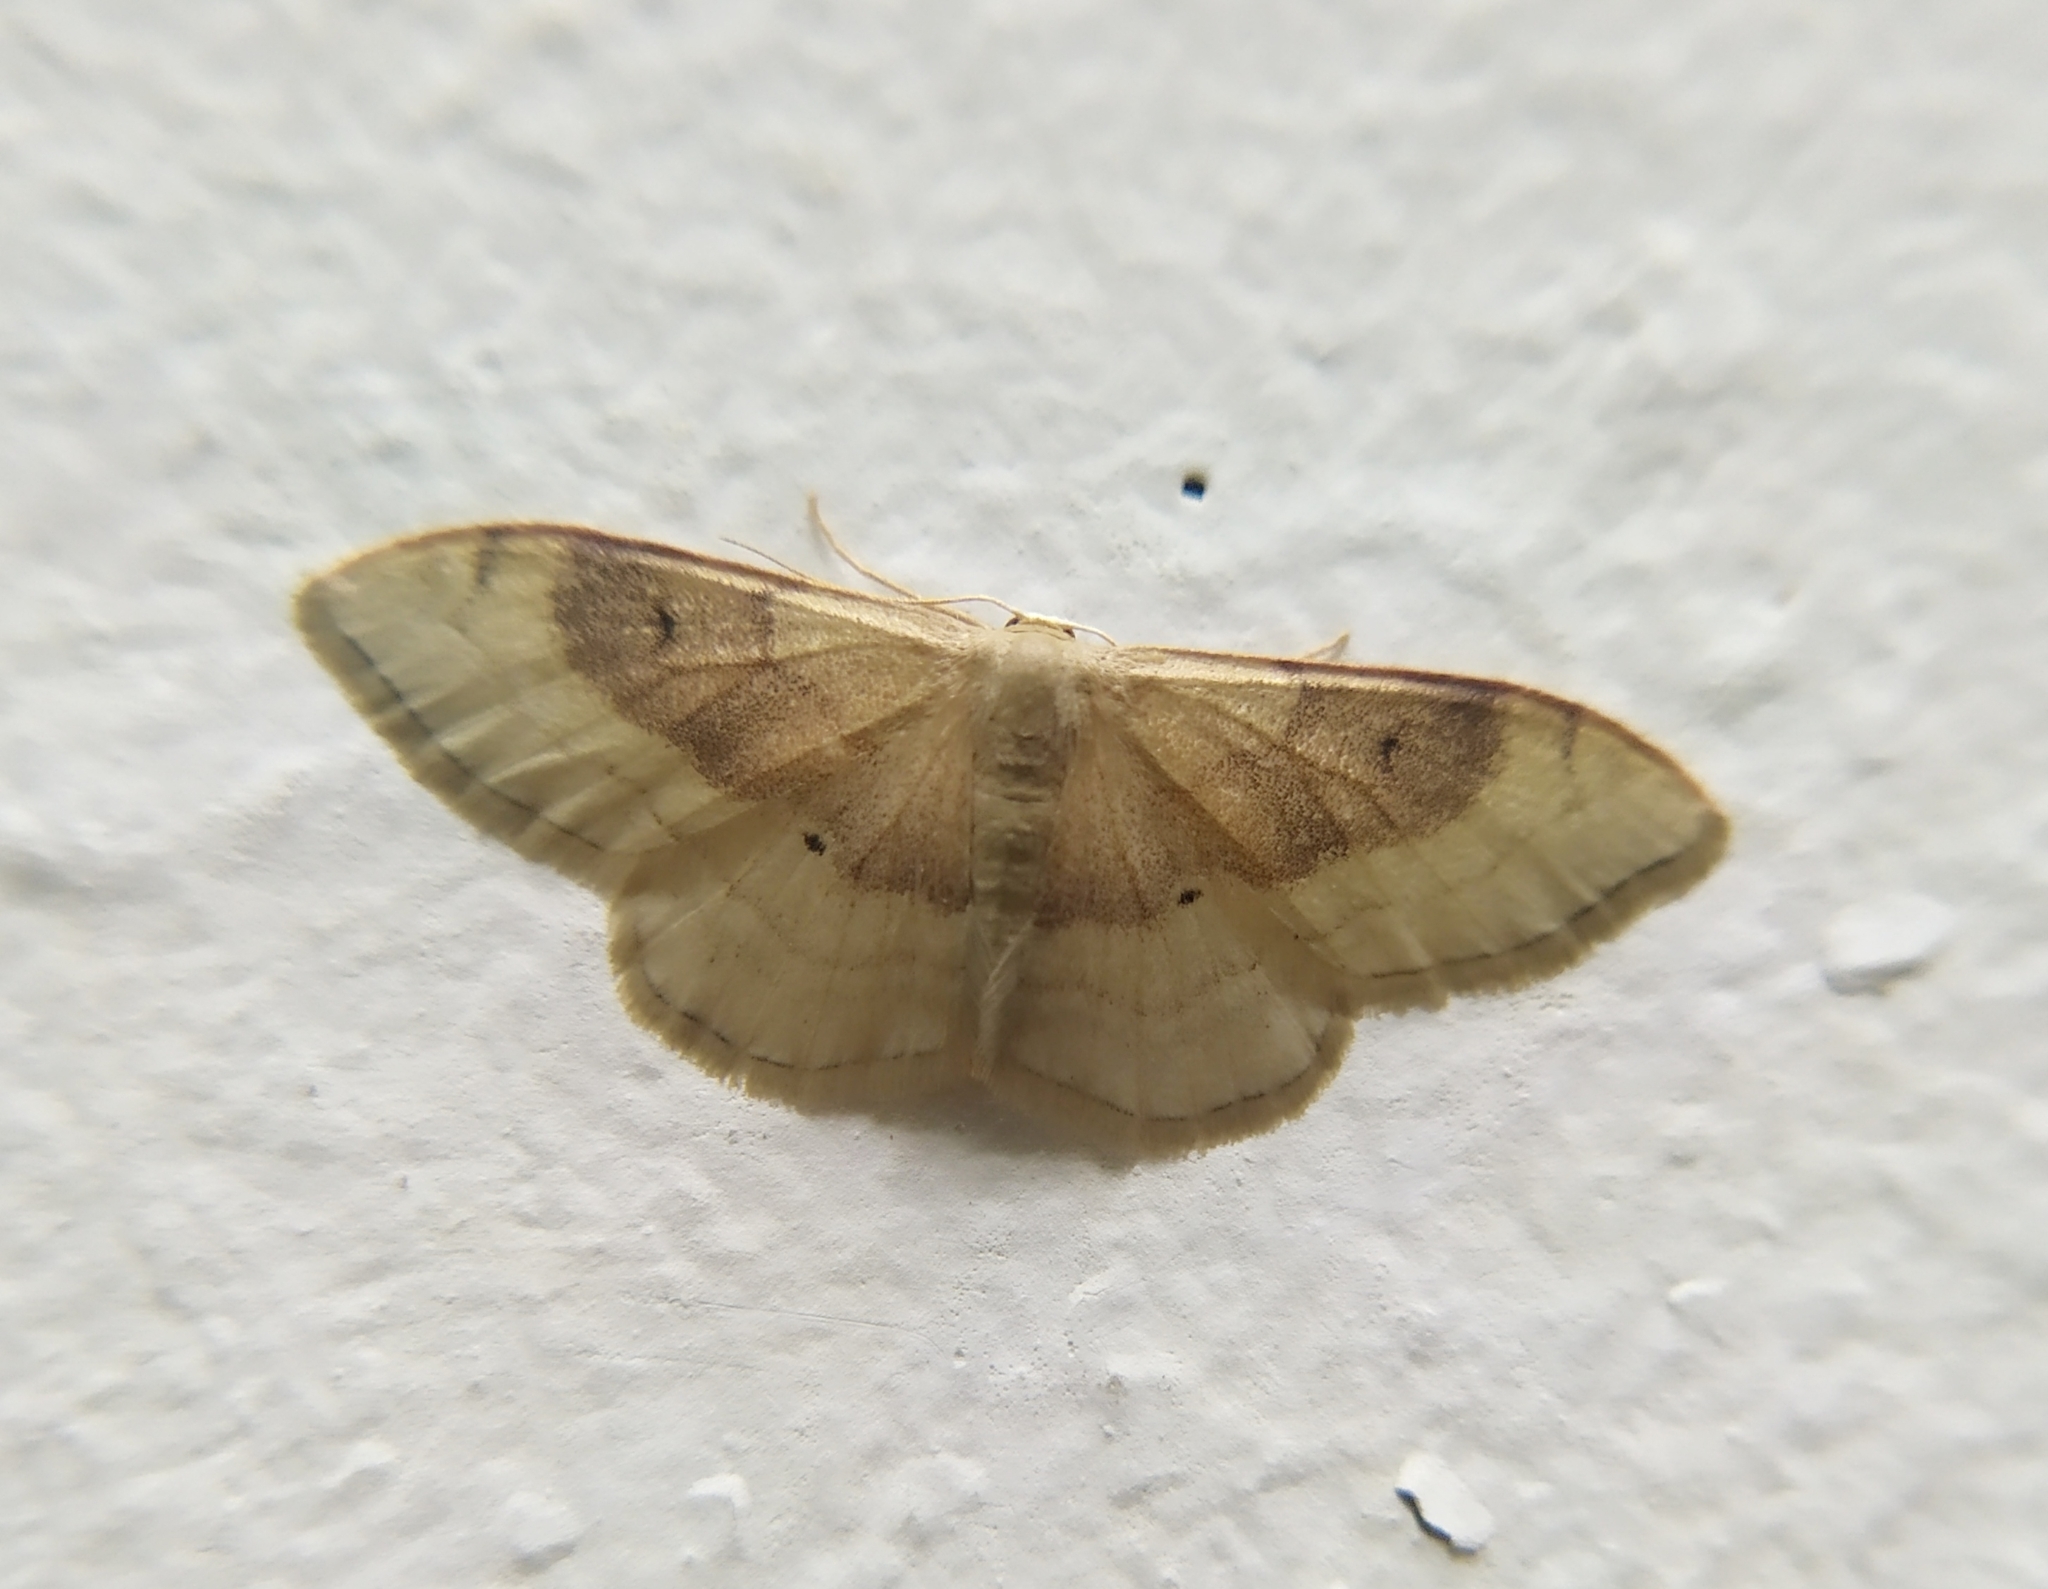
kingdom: Animalia
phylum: Arthropoda
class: Insecta
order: Lepidoptera
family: Geometridae
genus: Idaea
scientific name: Idaea degeneraria
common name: Portland ribbon wave
